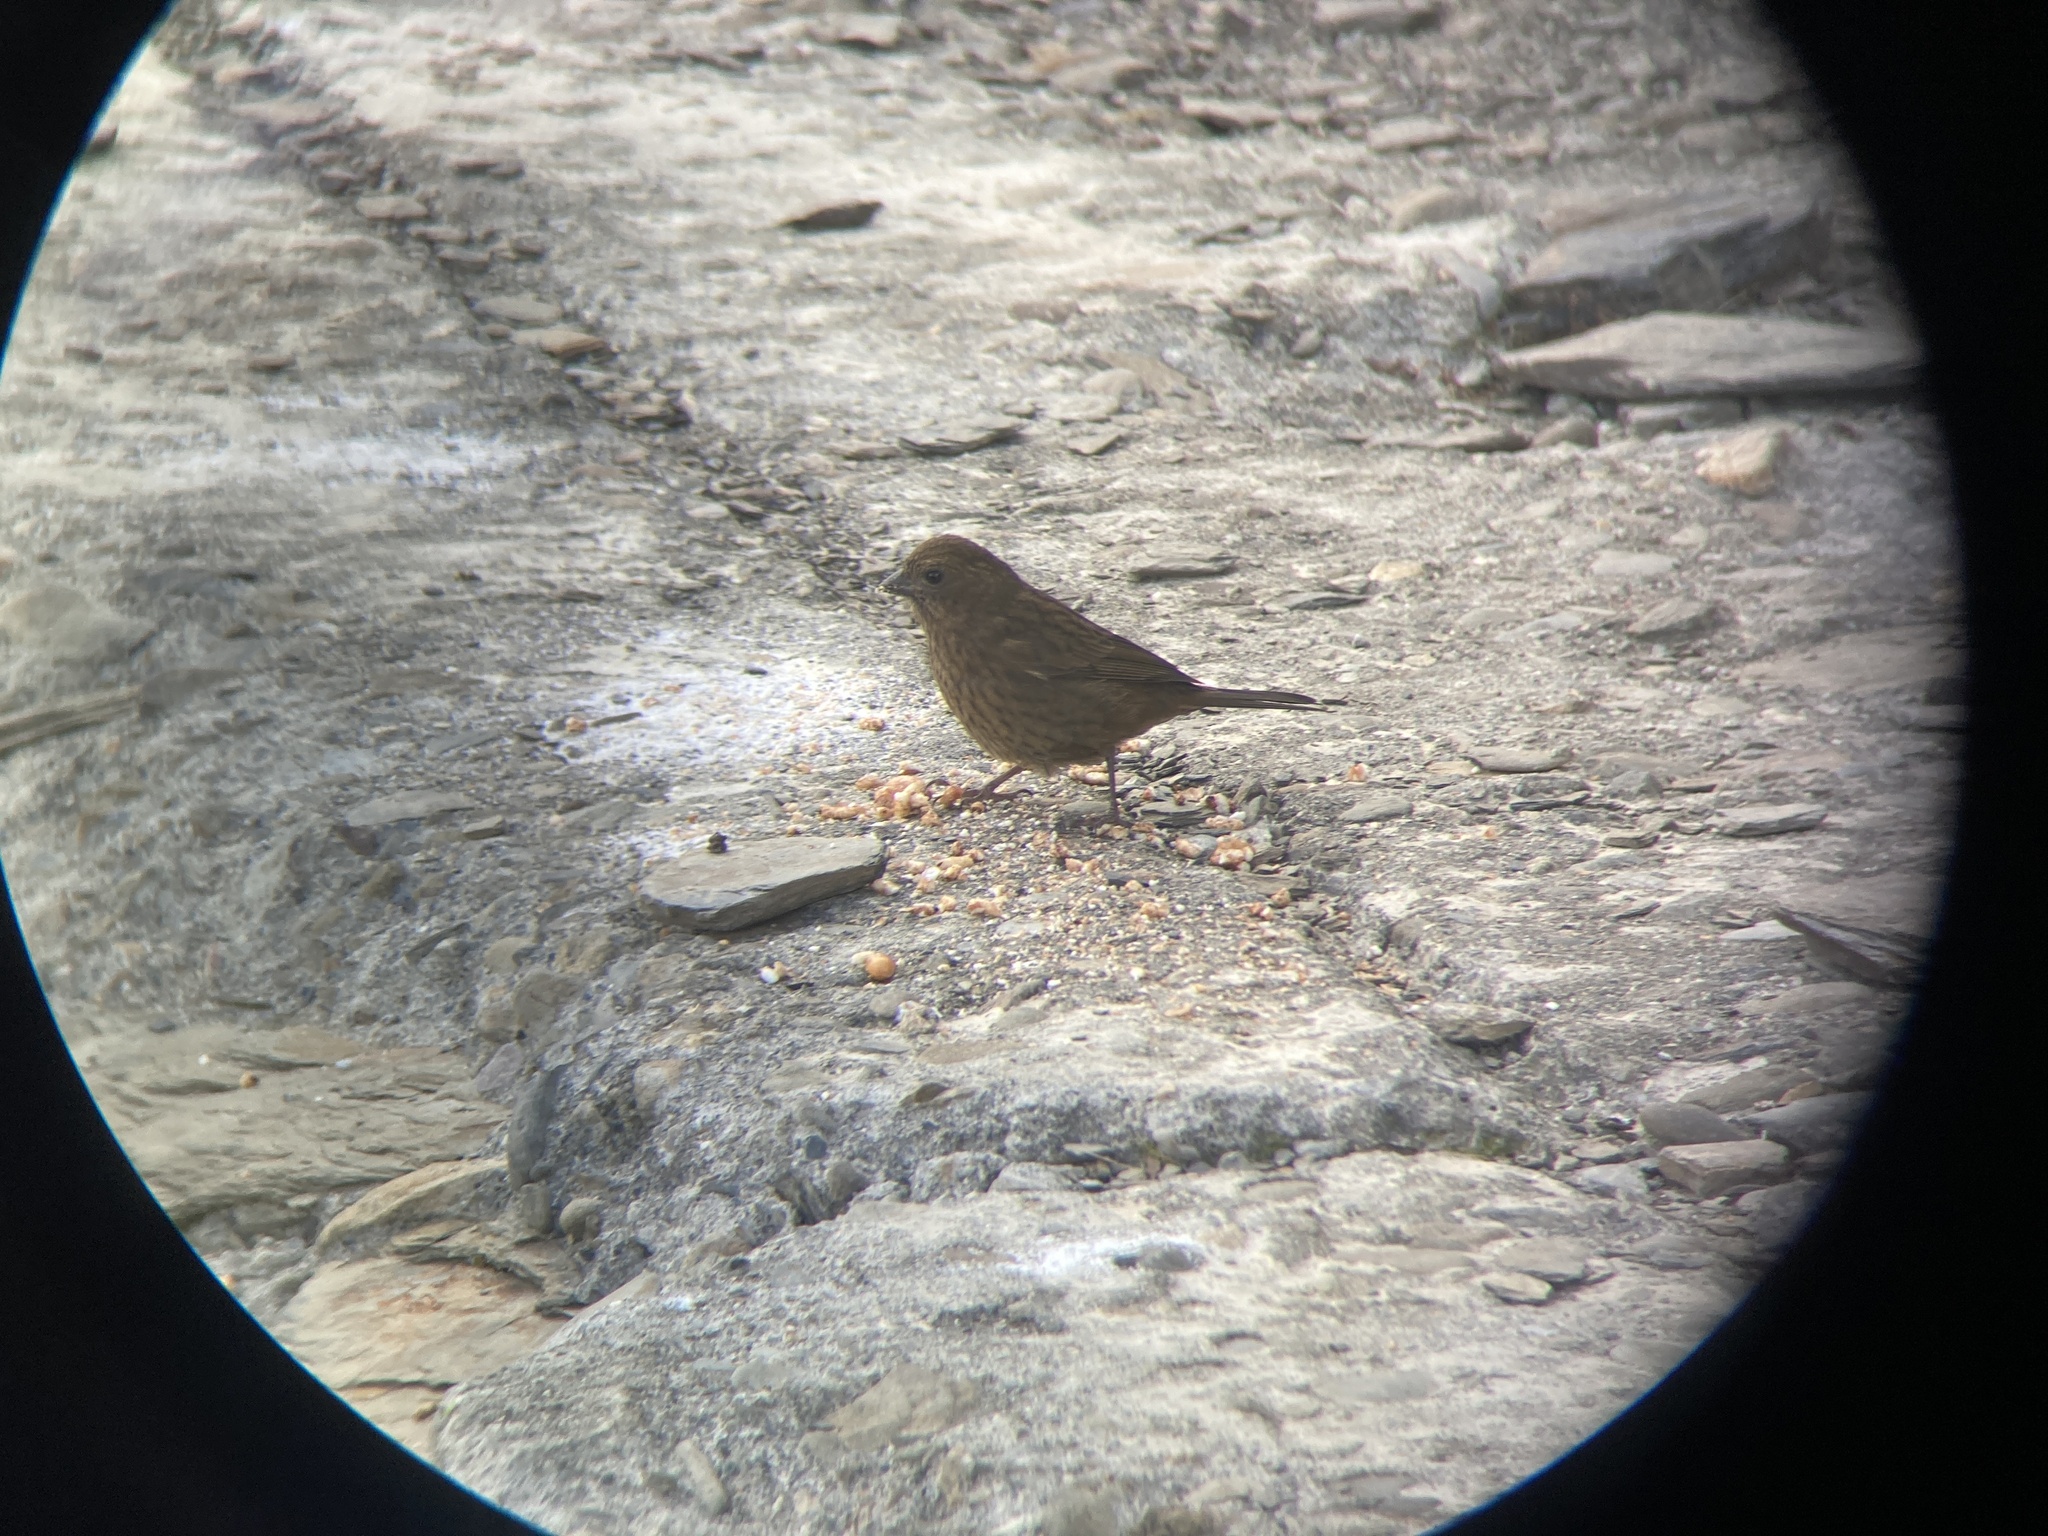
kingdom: Animalia
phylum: Chordata
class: Aves
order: Passeriformes
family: Fringillidae
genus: Carpodacus
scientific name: Carpodacus formosanus
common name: Taiwan rosefinch
